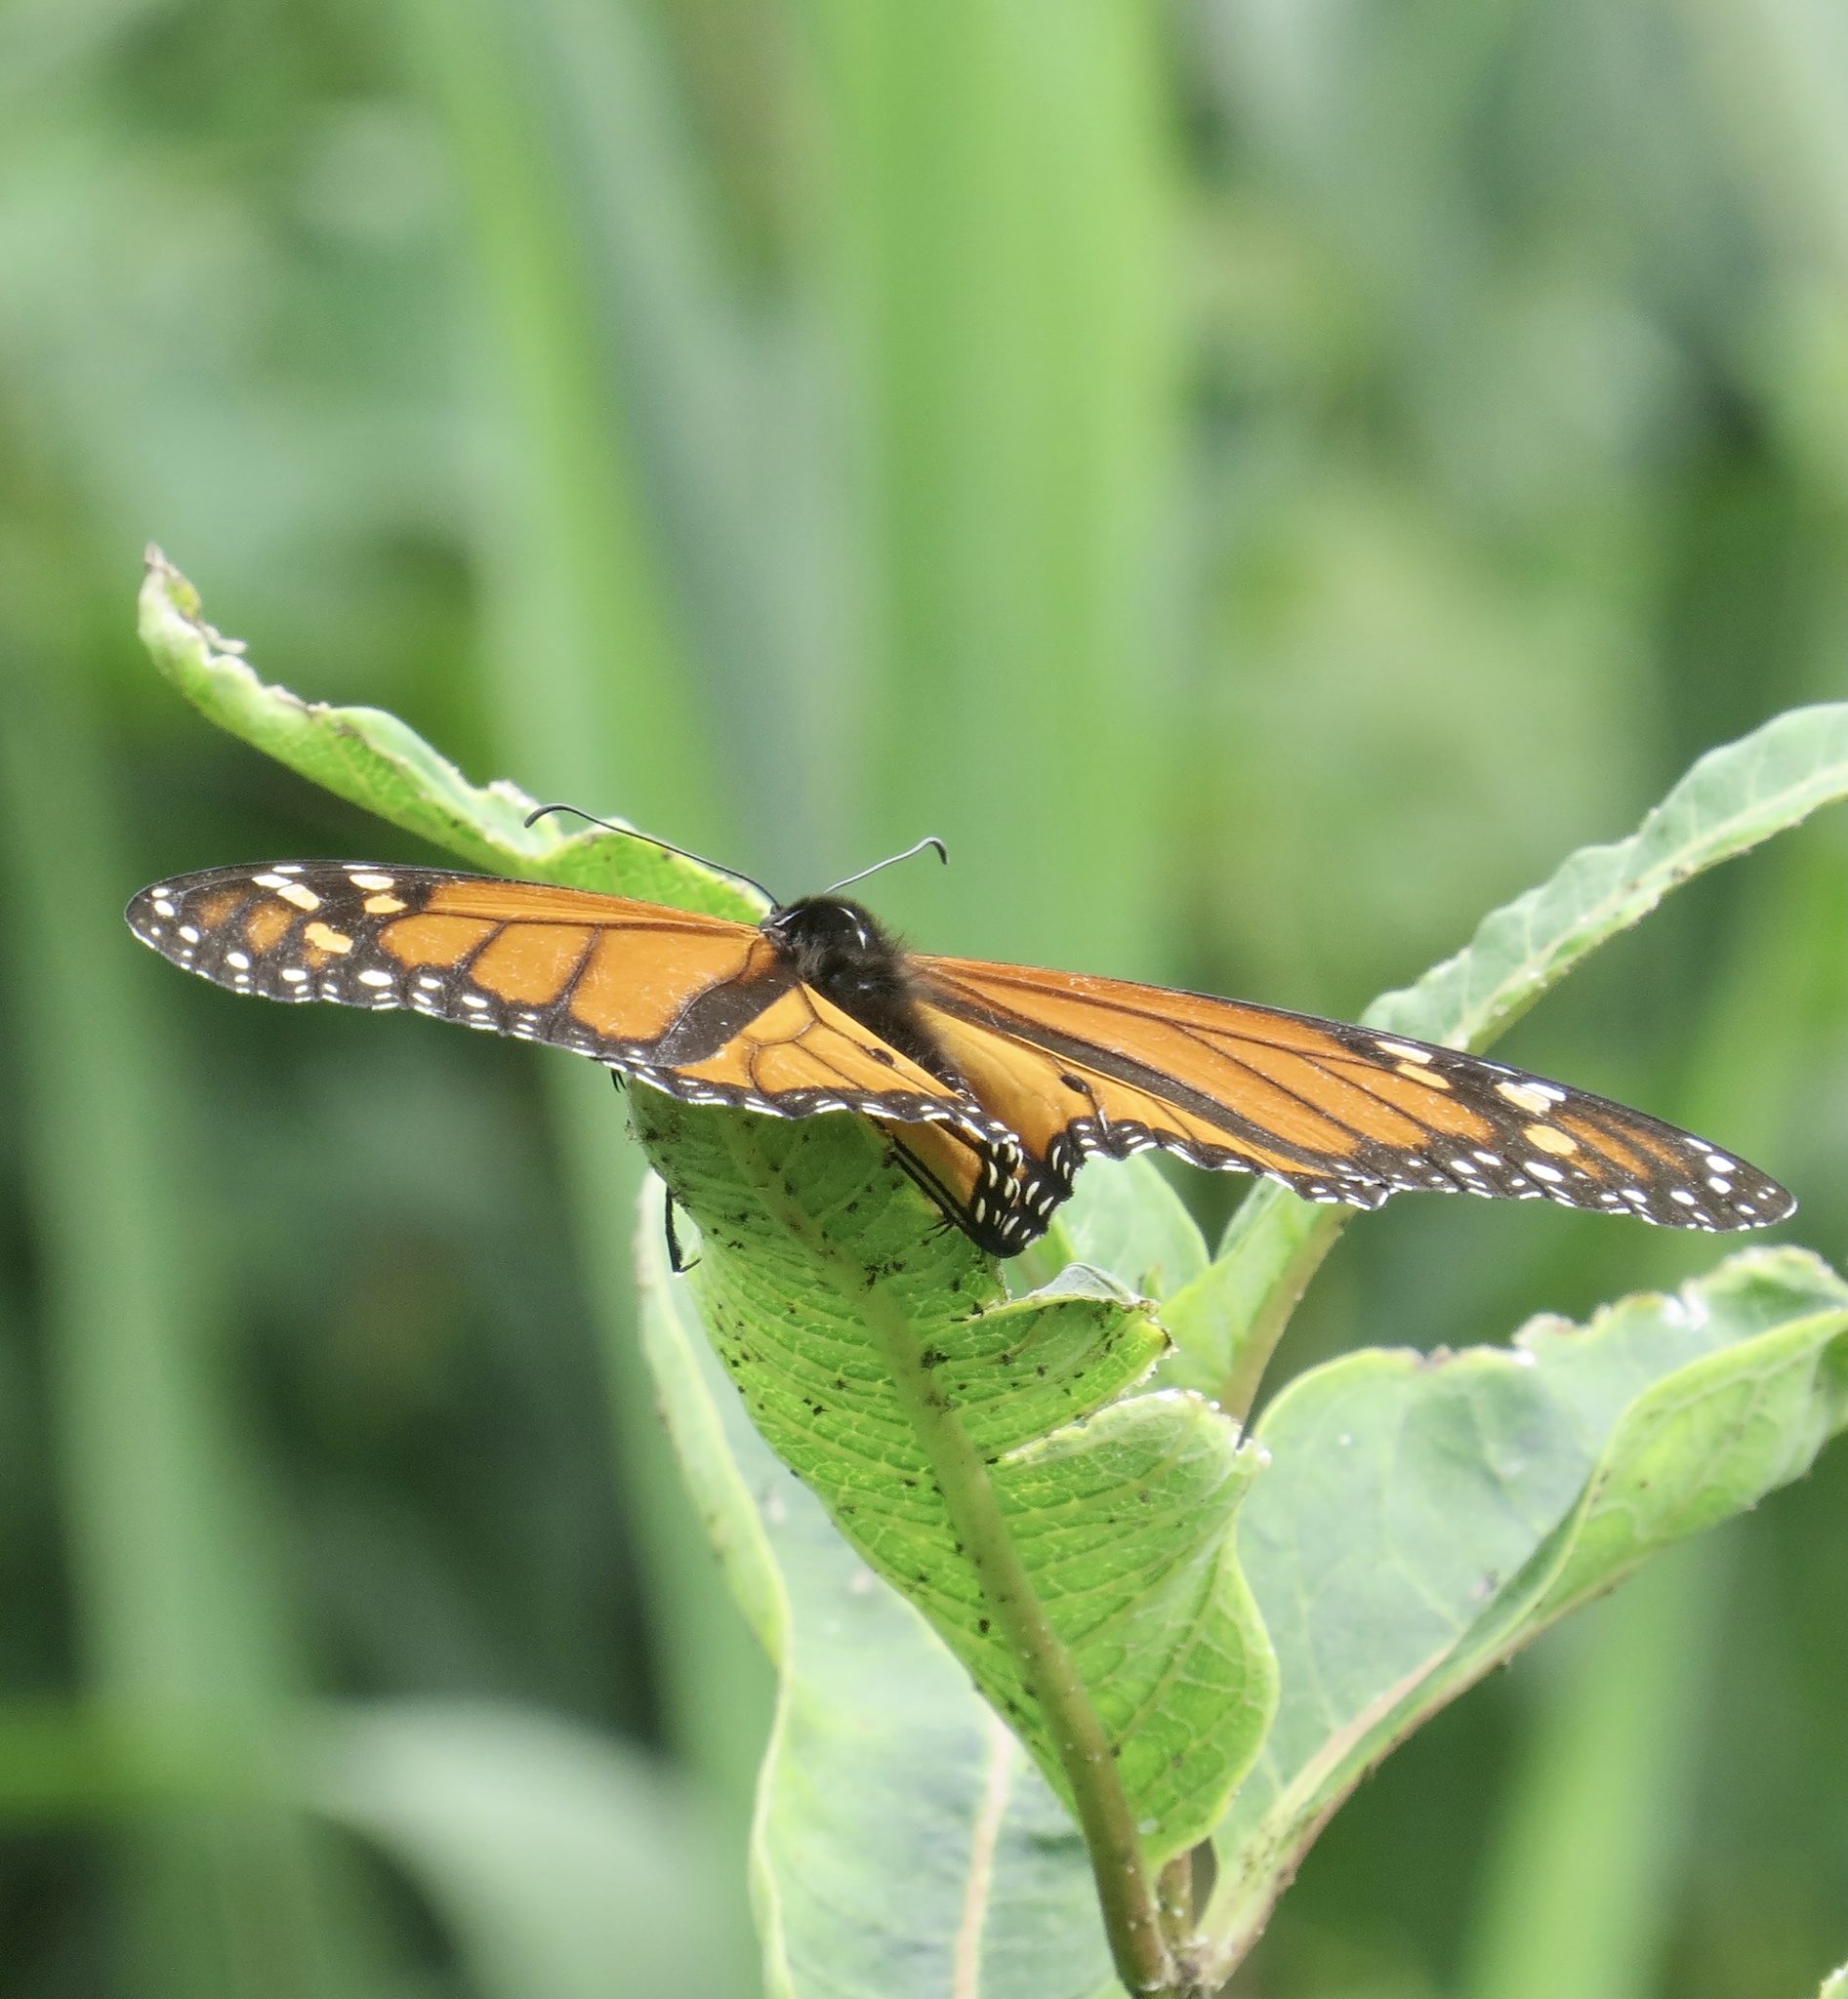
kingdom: Animalia
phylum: Arthropoda
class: Insecta
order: Lepidoptera
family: Nymphalidae
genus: Danaus
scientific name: Danaus plexippus
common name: Monarch
